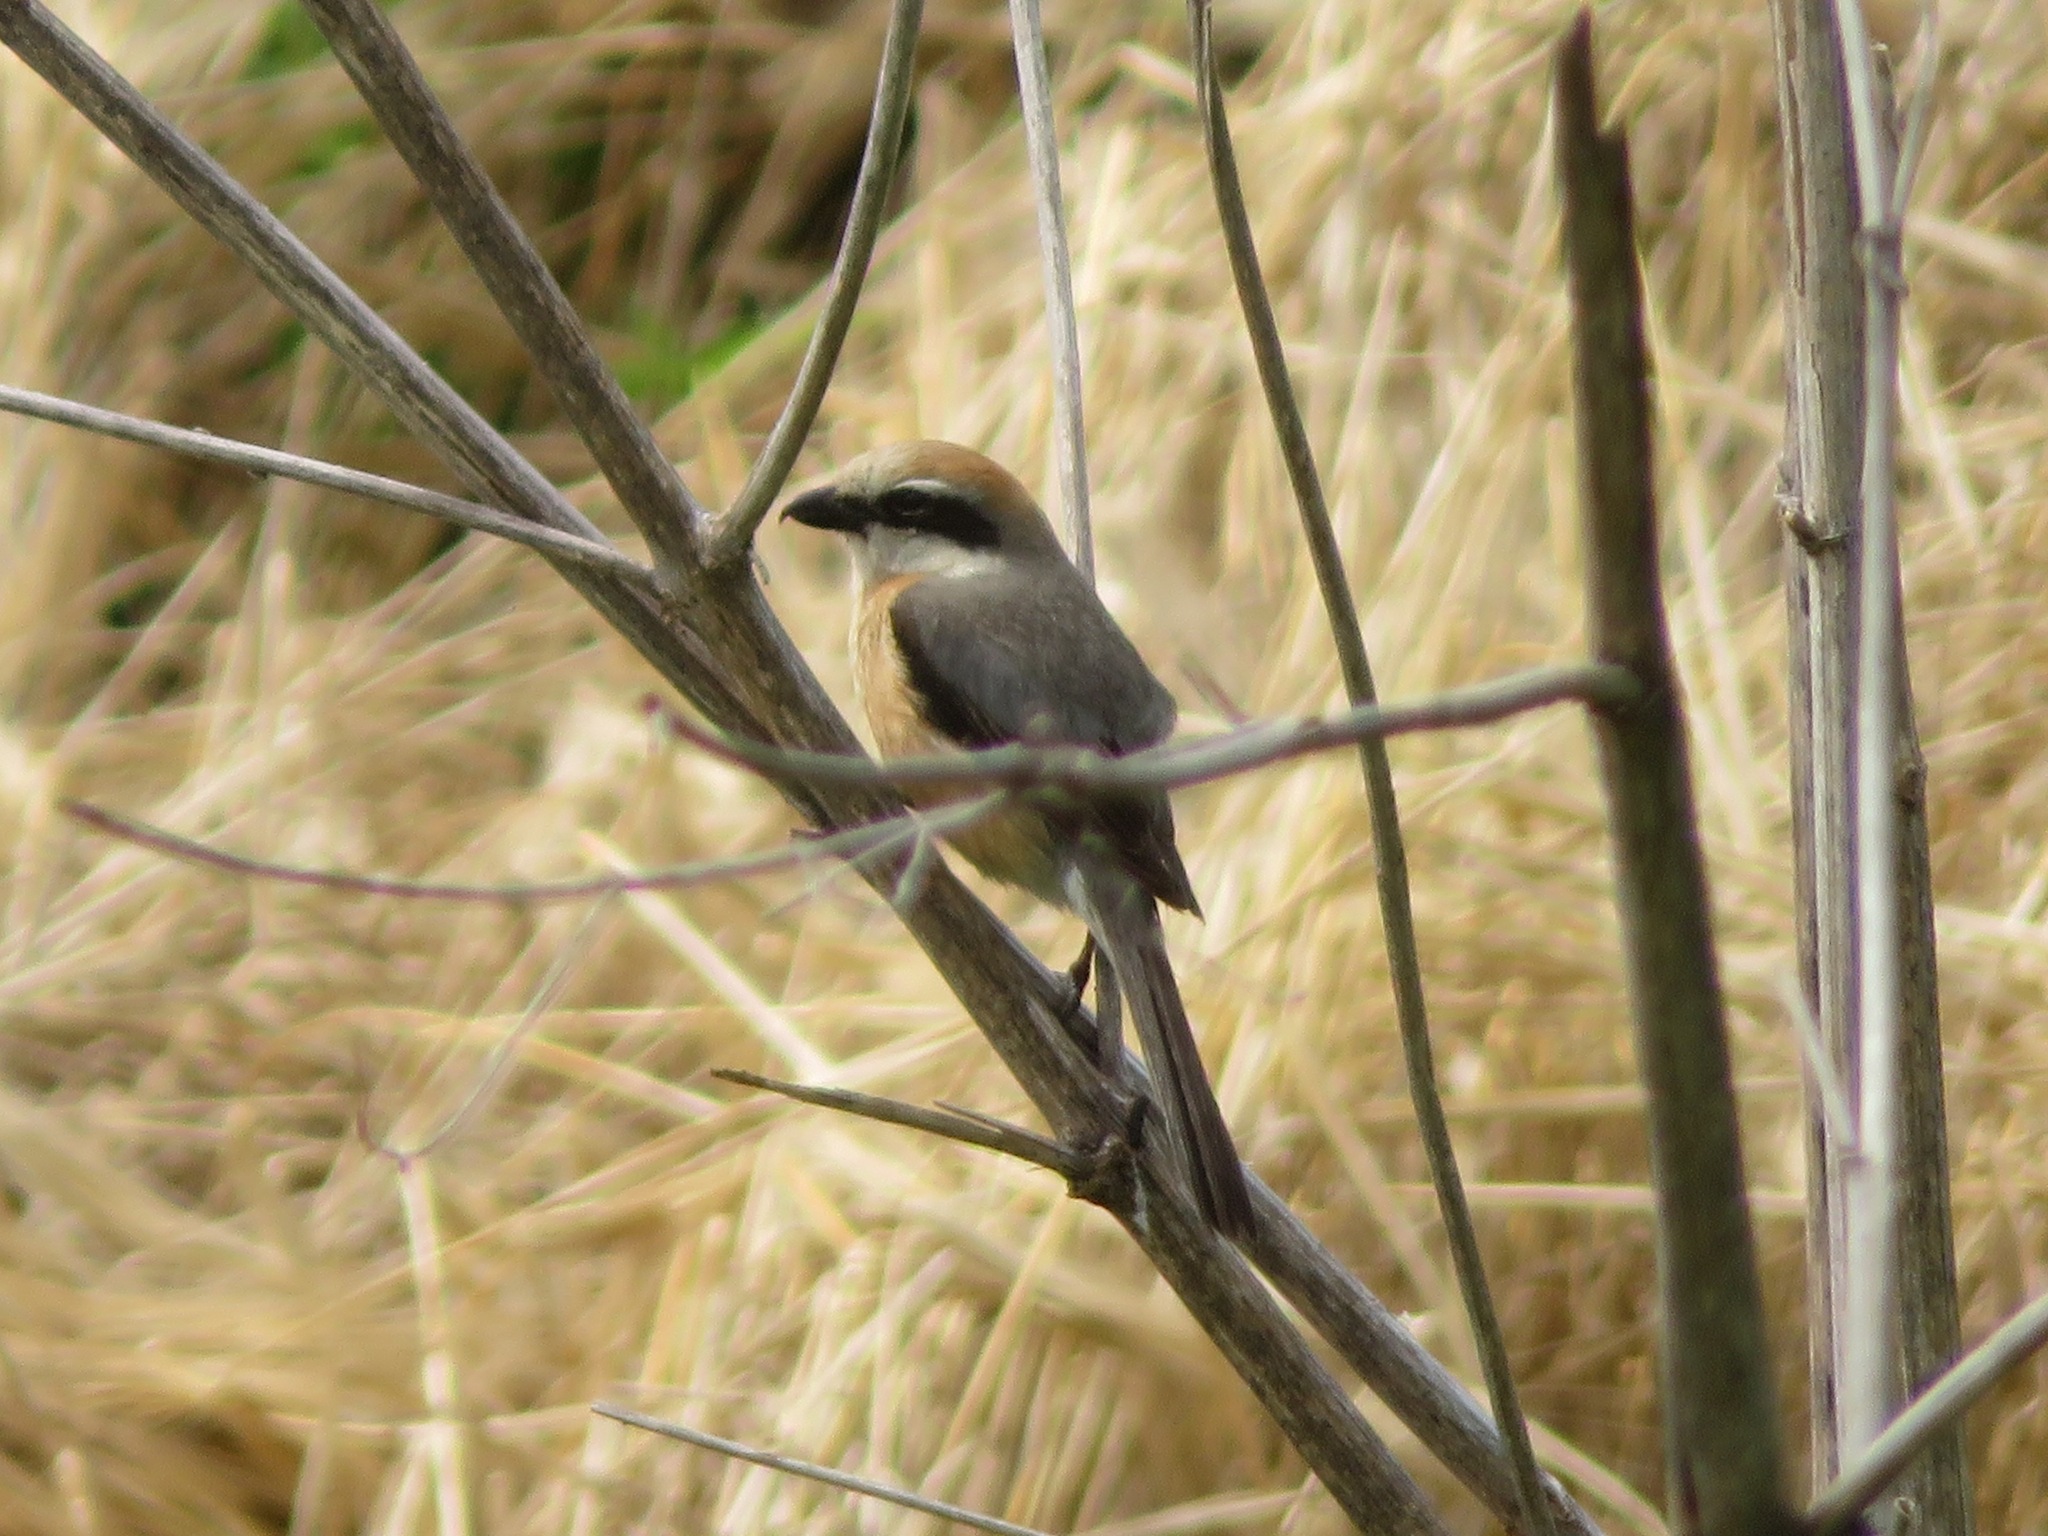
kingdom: Animalia
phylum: Chordata
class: Aves
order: Passeriformes
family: Laniidae
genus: Lanius
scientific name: Lanius bucephalus
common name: Bull-headed shrike
